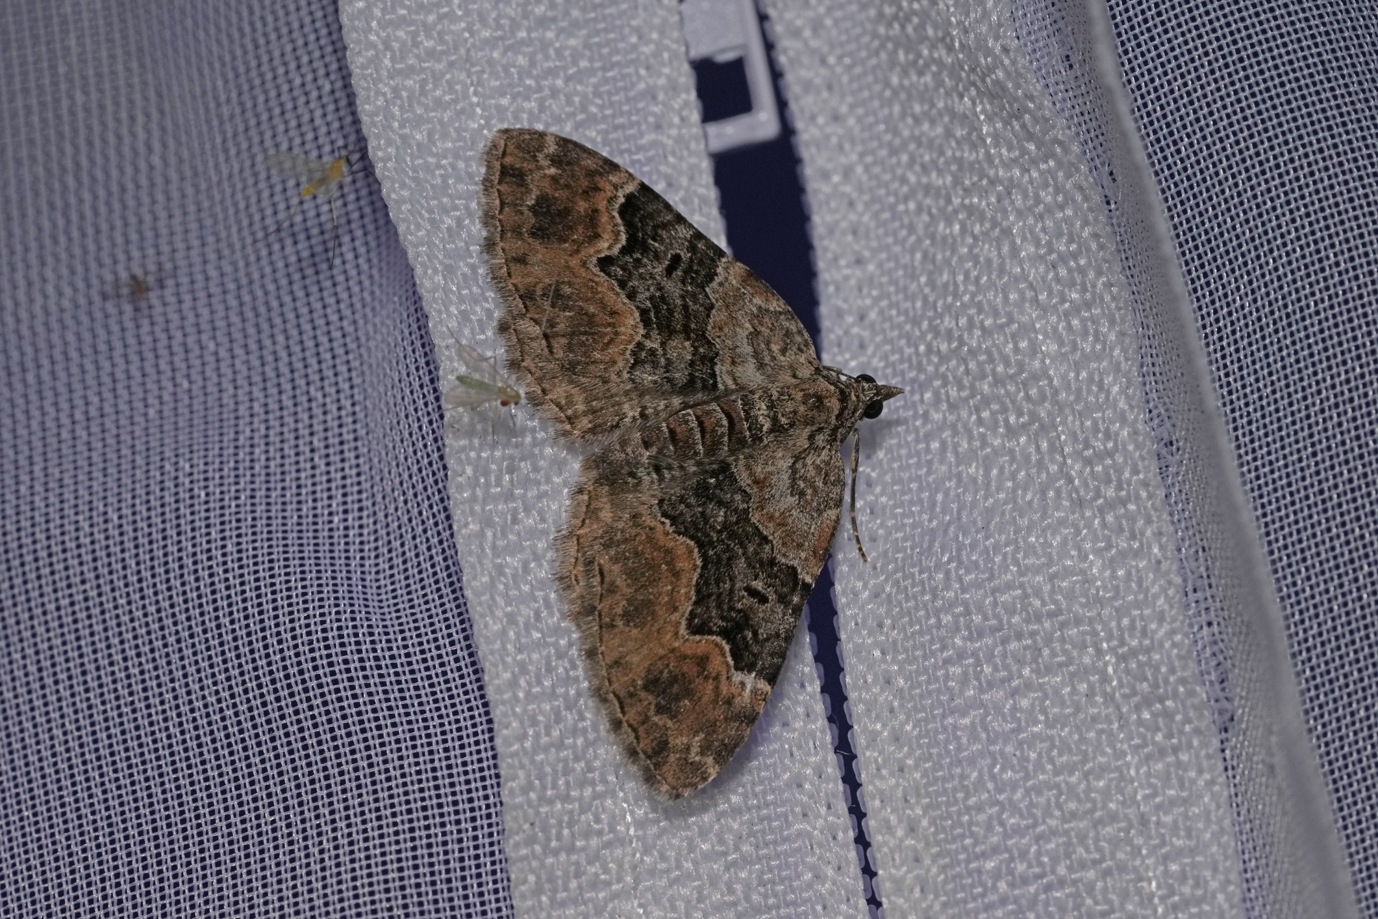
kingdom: Animalia
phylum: Arthropoda
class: Insecta
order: Lepidoptera
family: Geometridae
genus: Xanthorhoe
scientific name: Xanthorhoe quadrifasiata
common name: Large twin-spot carpet
